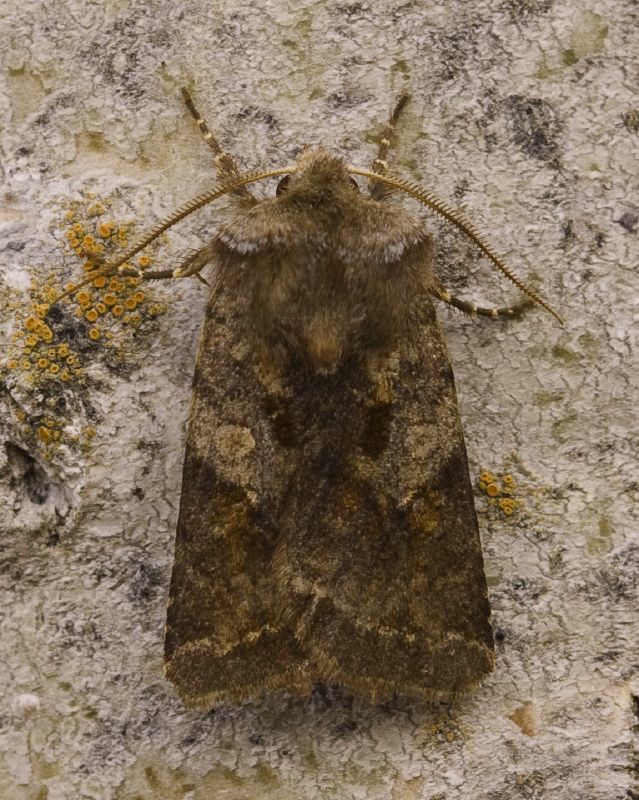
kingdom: Animalia
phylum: Arthropoda
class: Insecta
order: Lepidoptera
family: Noctuidae
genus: Cerastis
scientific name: Cerastis salicarum
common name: Willow dart
